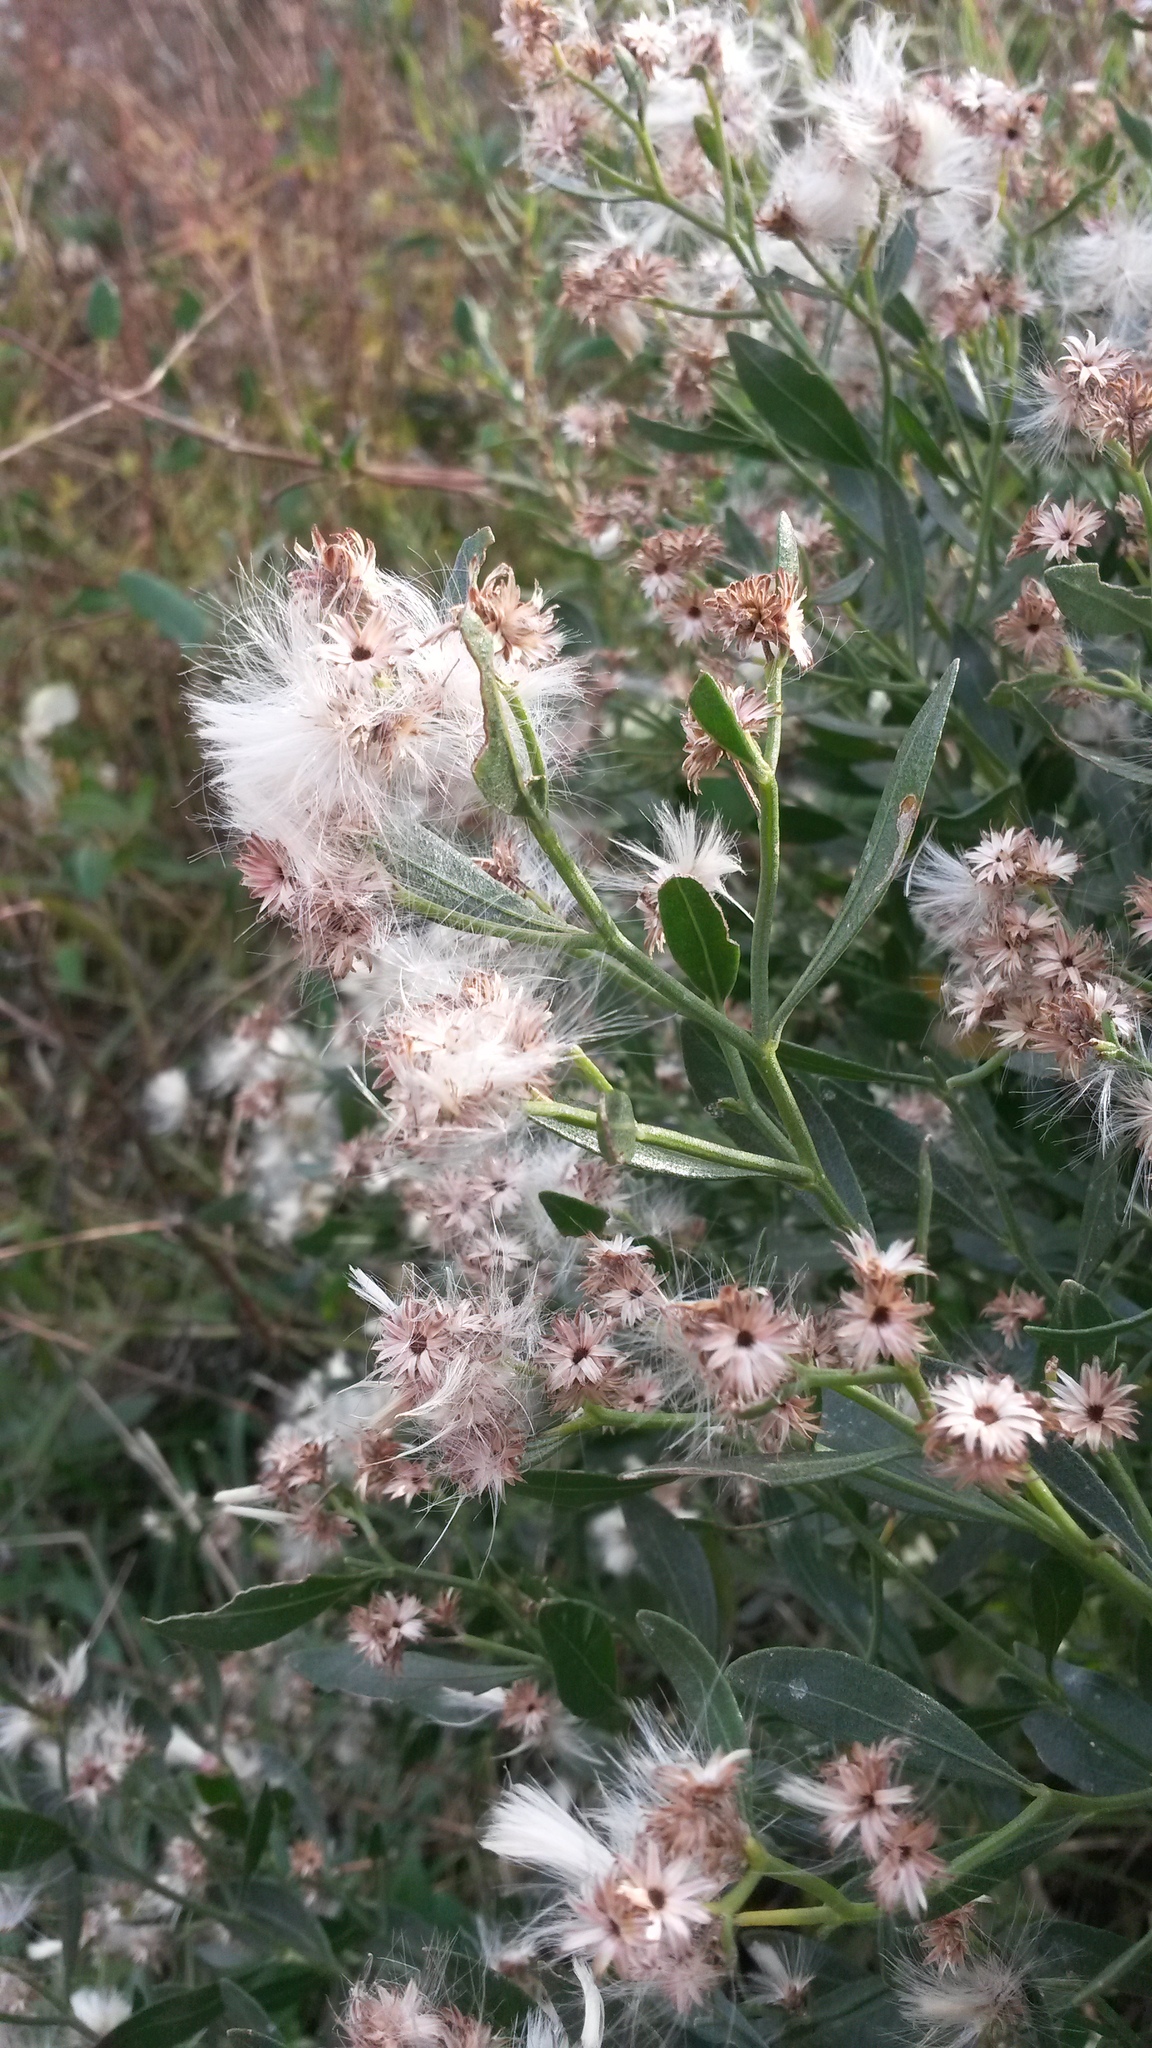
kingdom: Plantae
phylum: Tracheophyta
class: Magnoliopsida
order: Asterales
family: Asteraceae
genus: Baccharis
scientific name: Baccharis halimifolia
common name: Eastern baccharis
